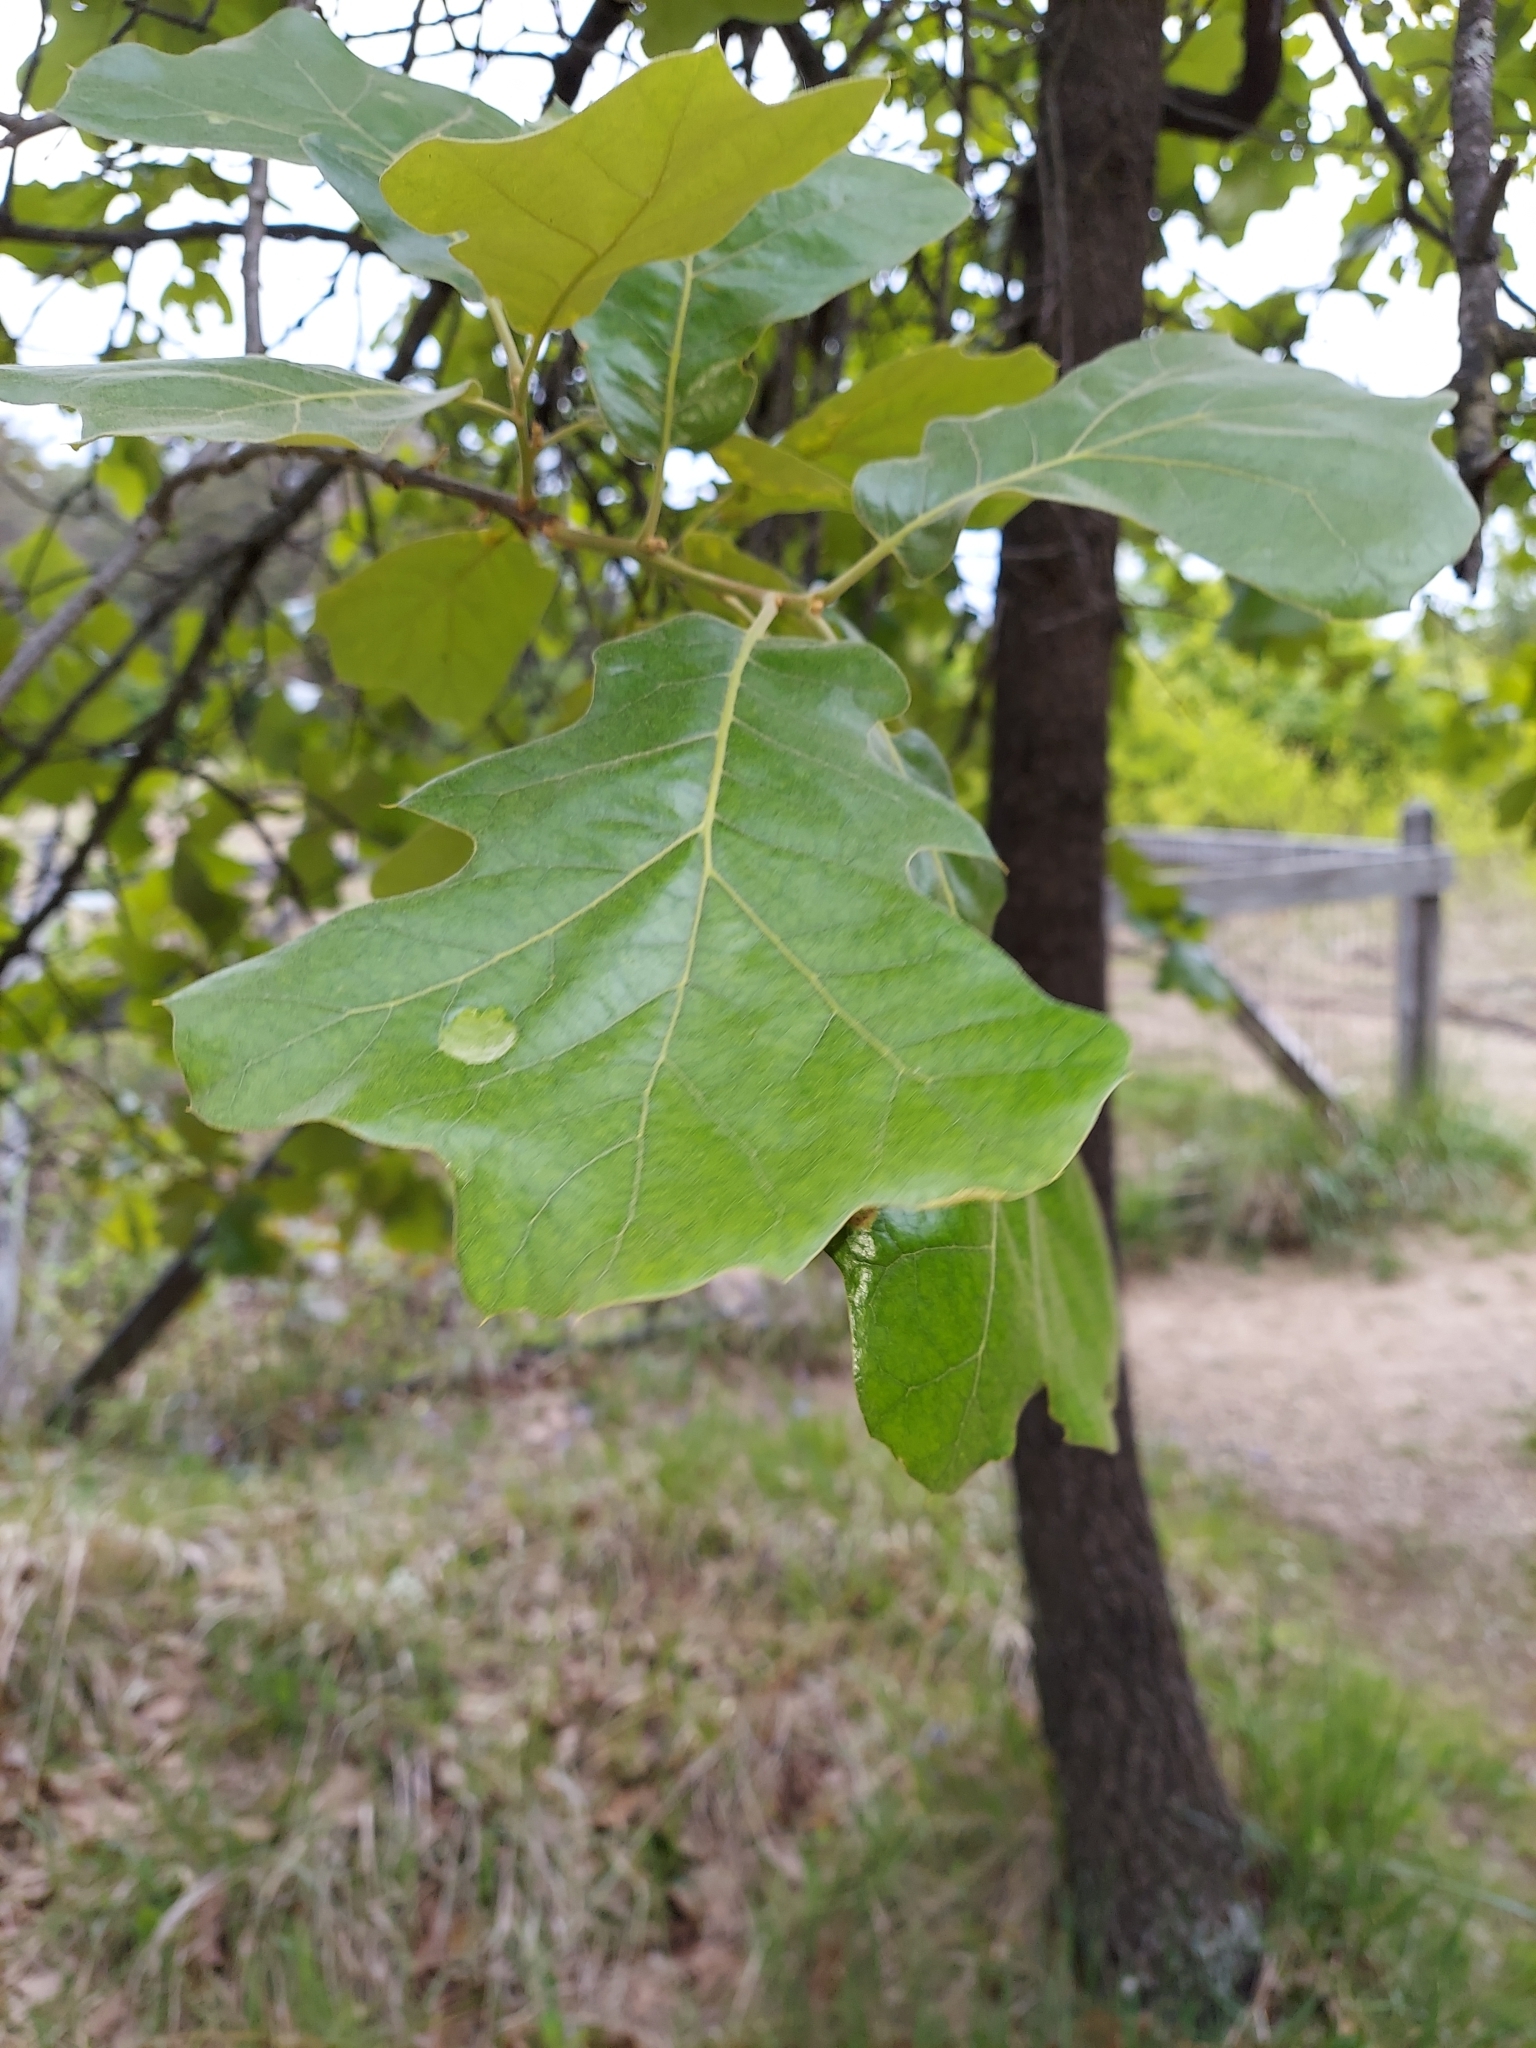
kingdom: Plantae
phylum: Tracheophyta
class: Magnoliopsida
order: Fagales
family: Fagaceae
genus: Quercus
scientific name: Quercus marilandica
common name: Blackjack oak
